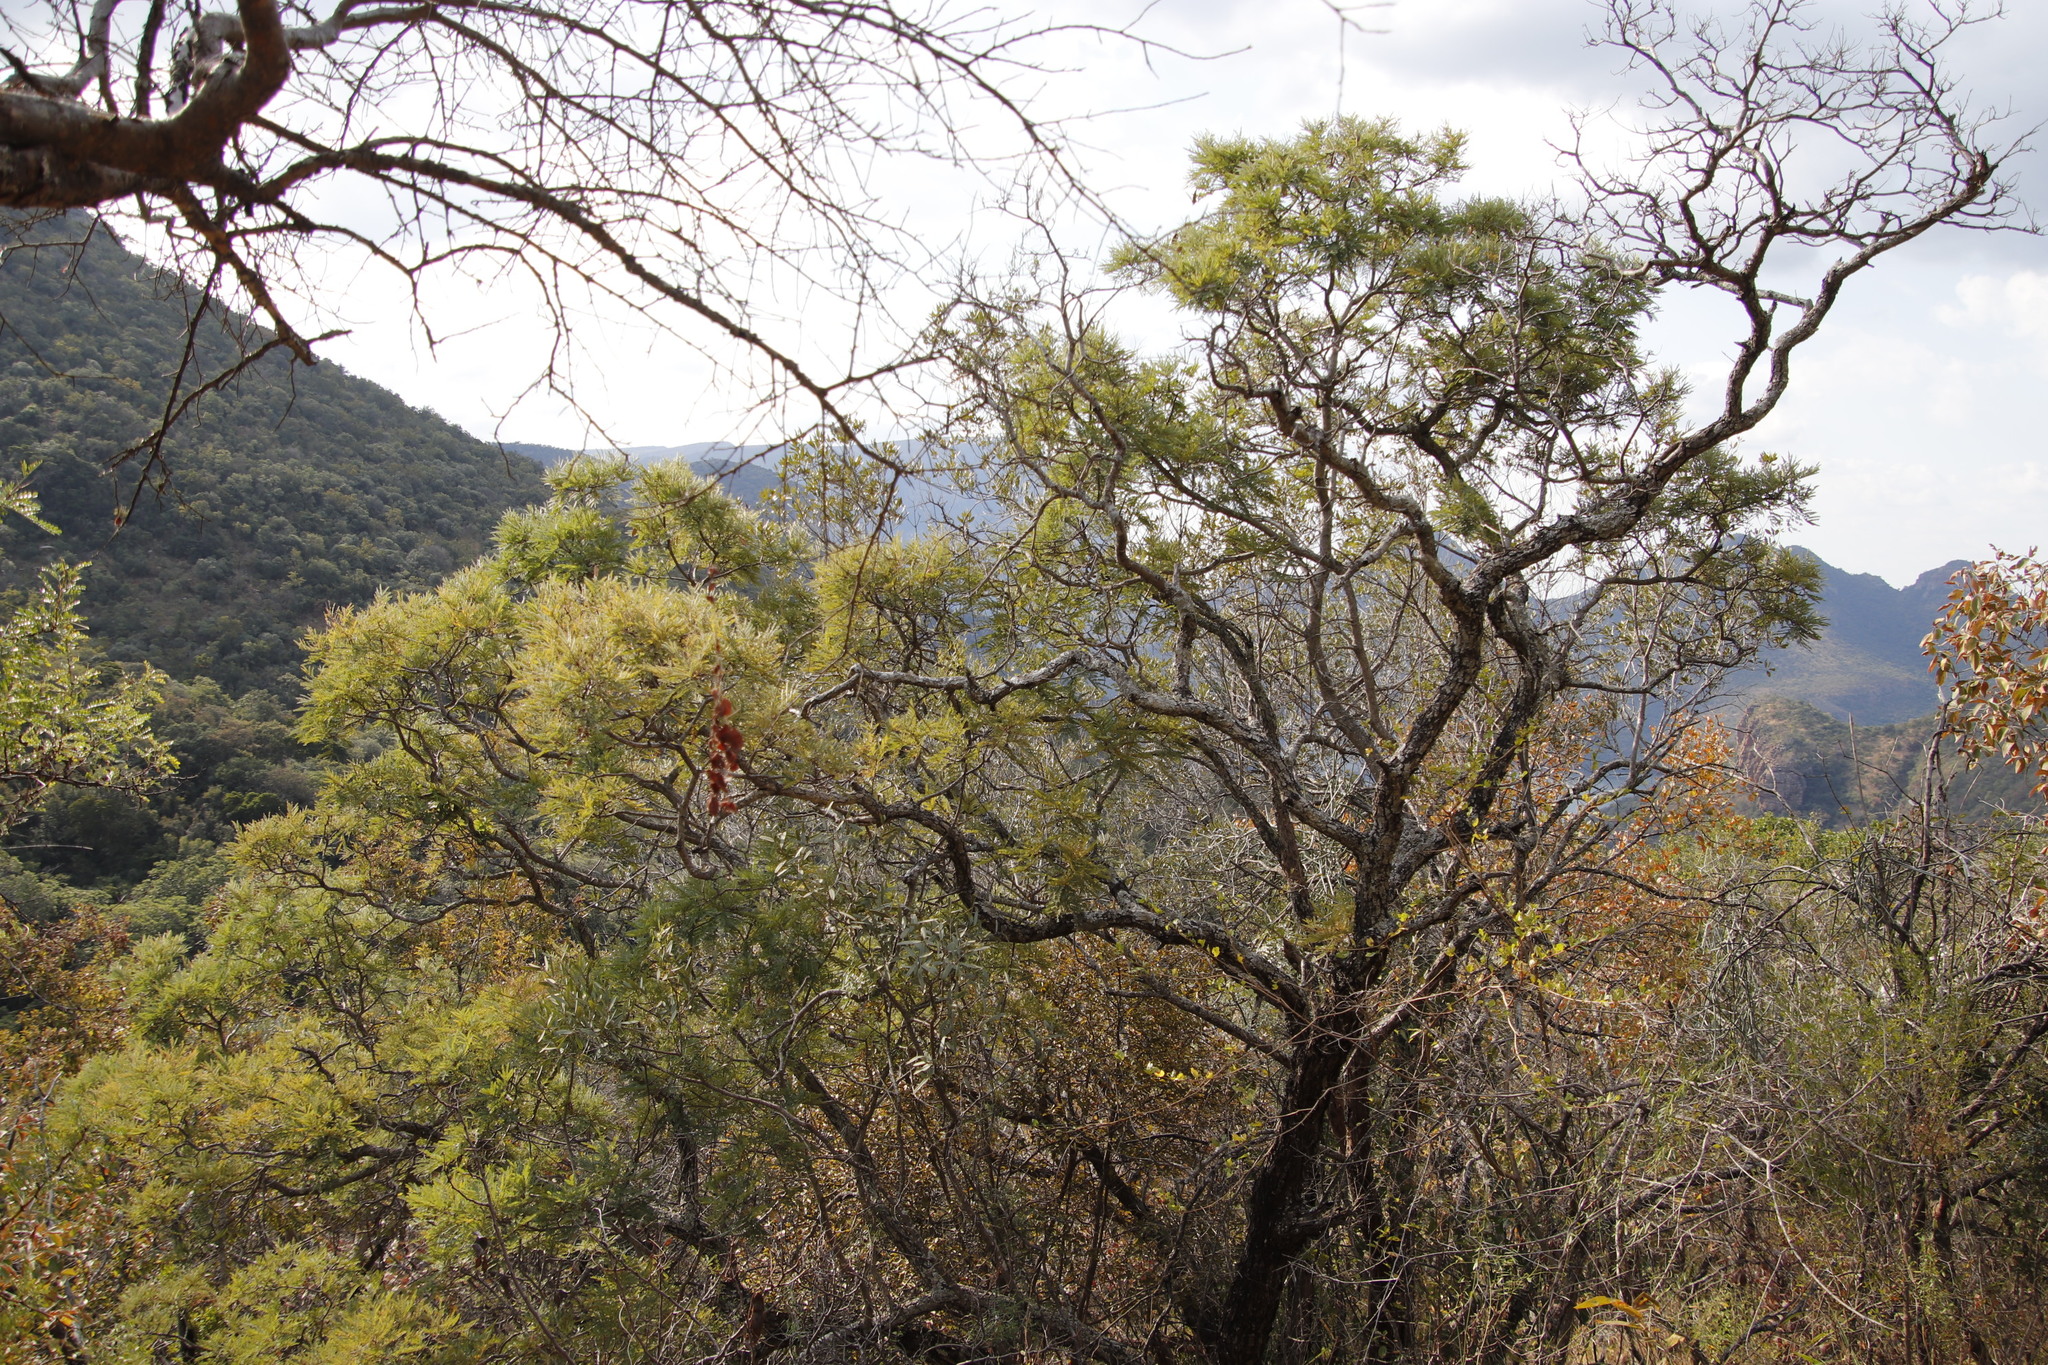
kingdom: Plantae
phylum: Tracheophyta
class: Magnoliopsida
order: Fabales
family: Fabaceae
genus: Peltophorum
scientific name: Peltophorum africanum
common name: African black wattle
